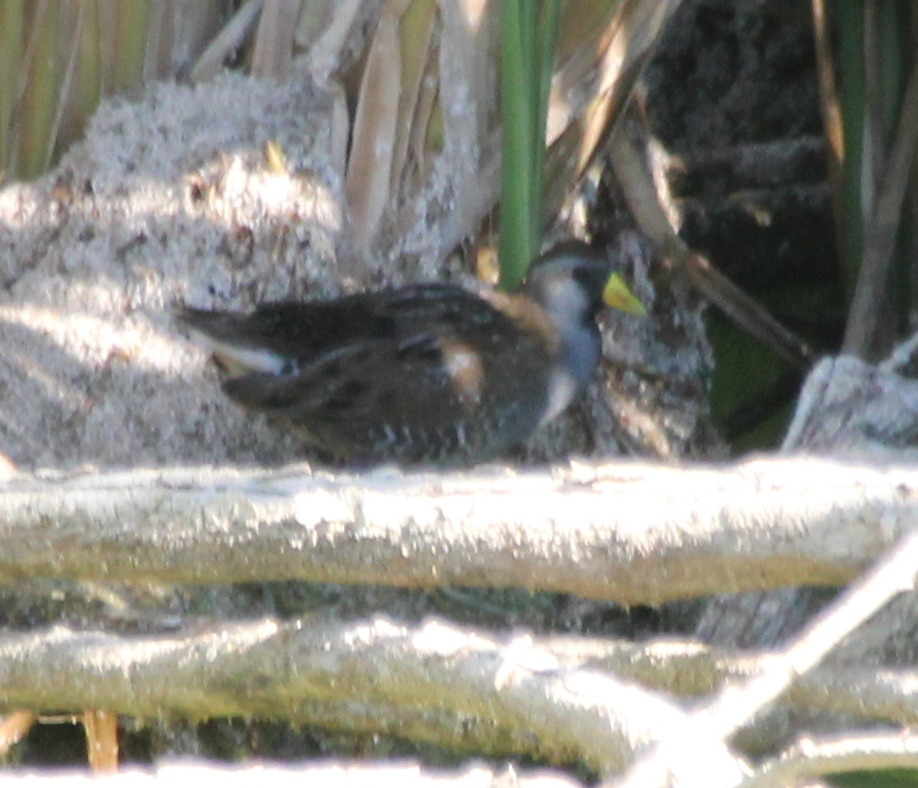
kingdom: Animalia
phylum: Chordata
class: Aves
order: Gruiformes
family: Rallidae
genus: Porzana
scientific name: Porzana carolina
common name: Sora
